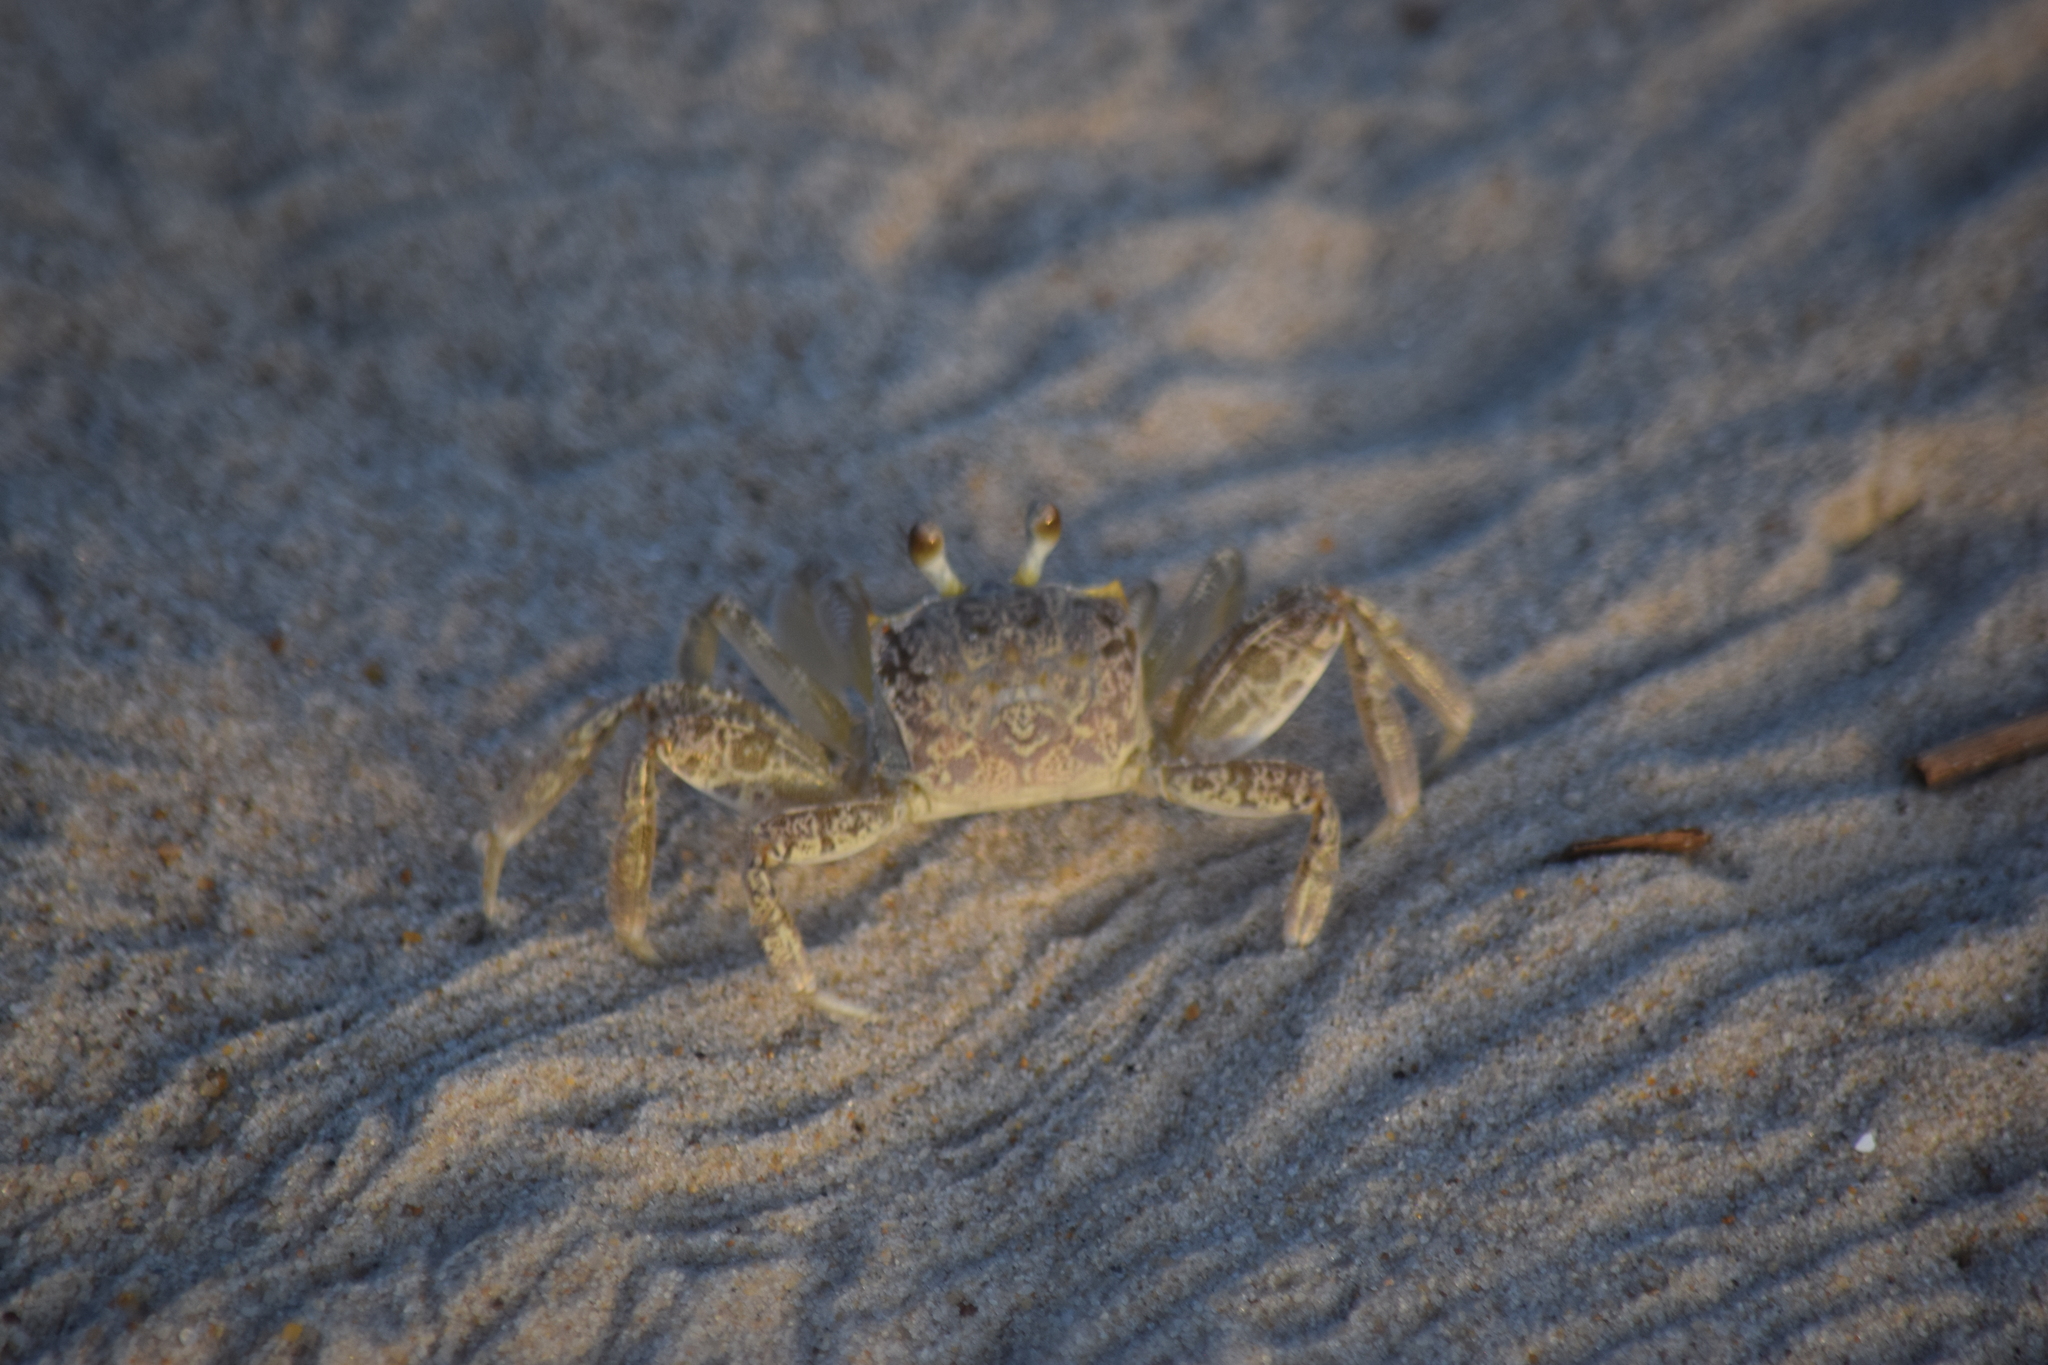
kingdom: Animalia
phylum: Arthropoda
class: Malacostraca
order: Decapoda
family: Ocypodidae
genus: Ocypode
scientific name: Ocypode quadrata
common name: Ghost crab
